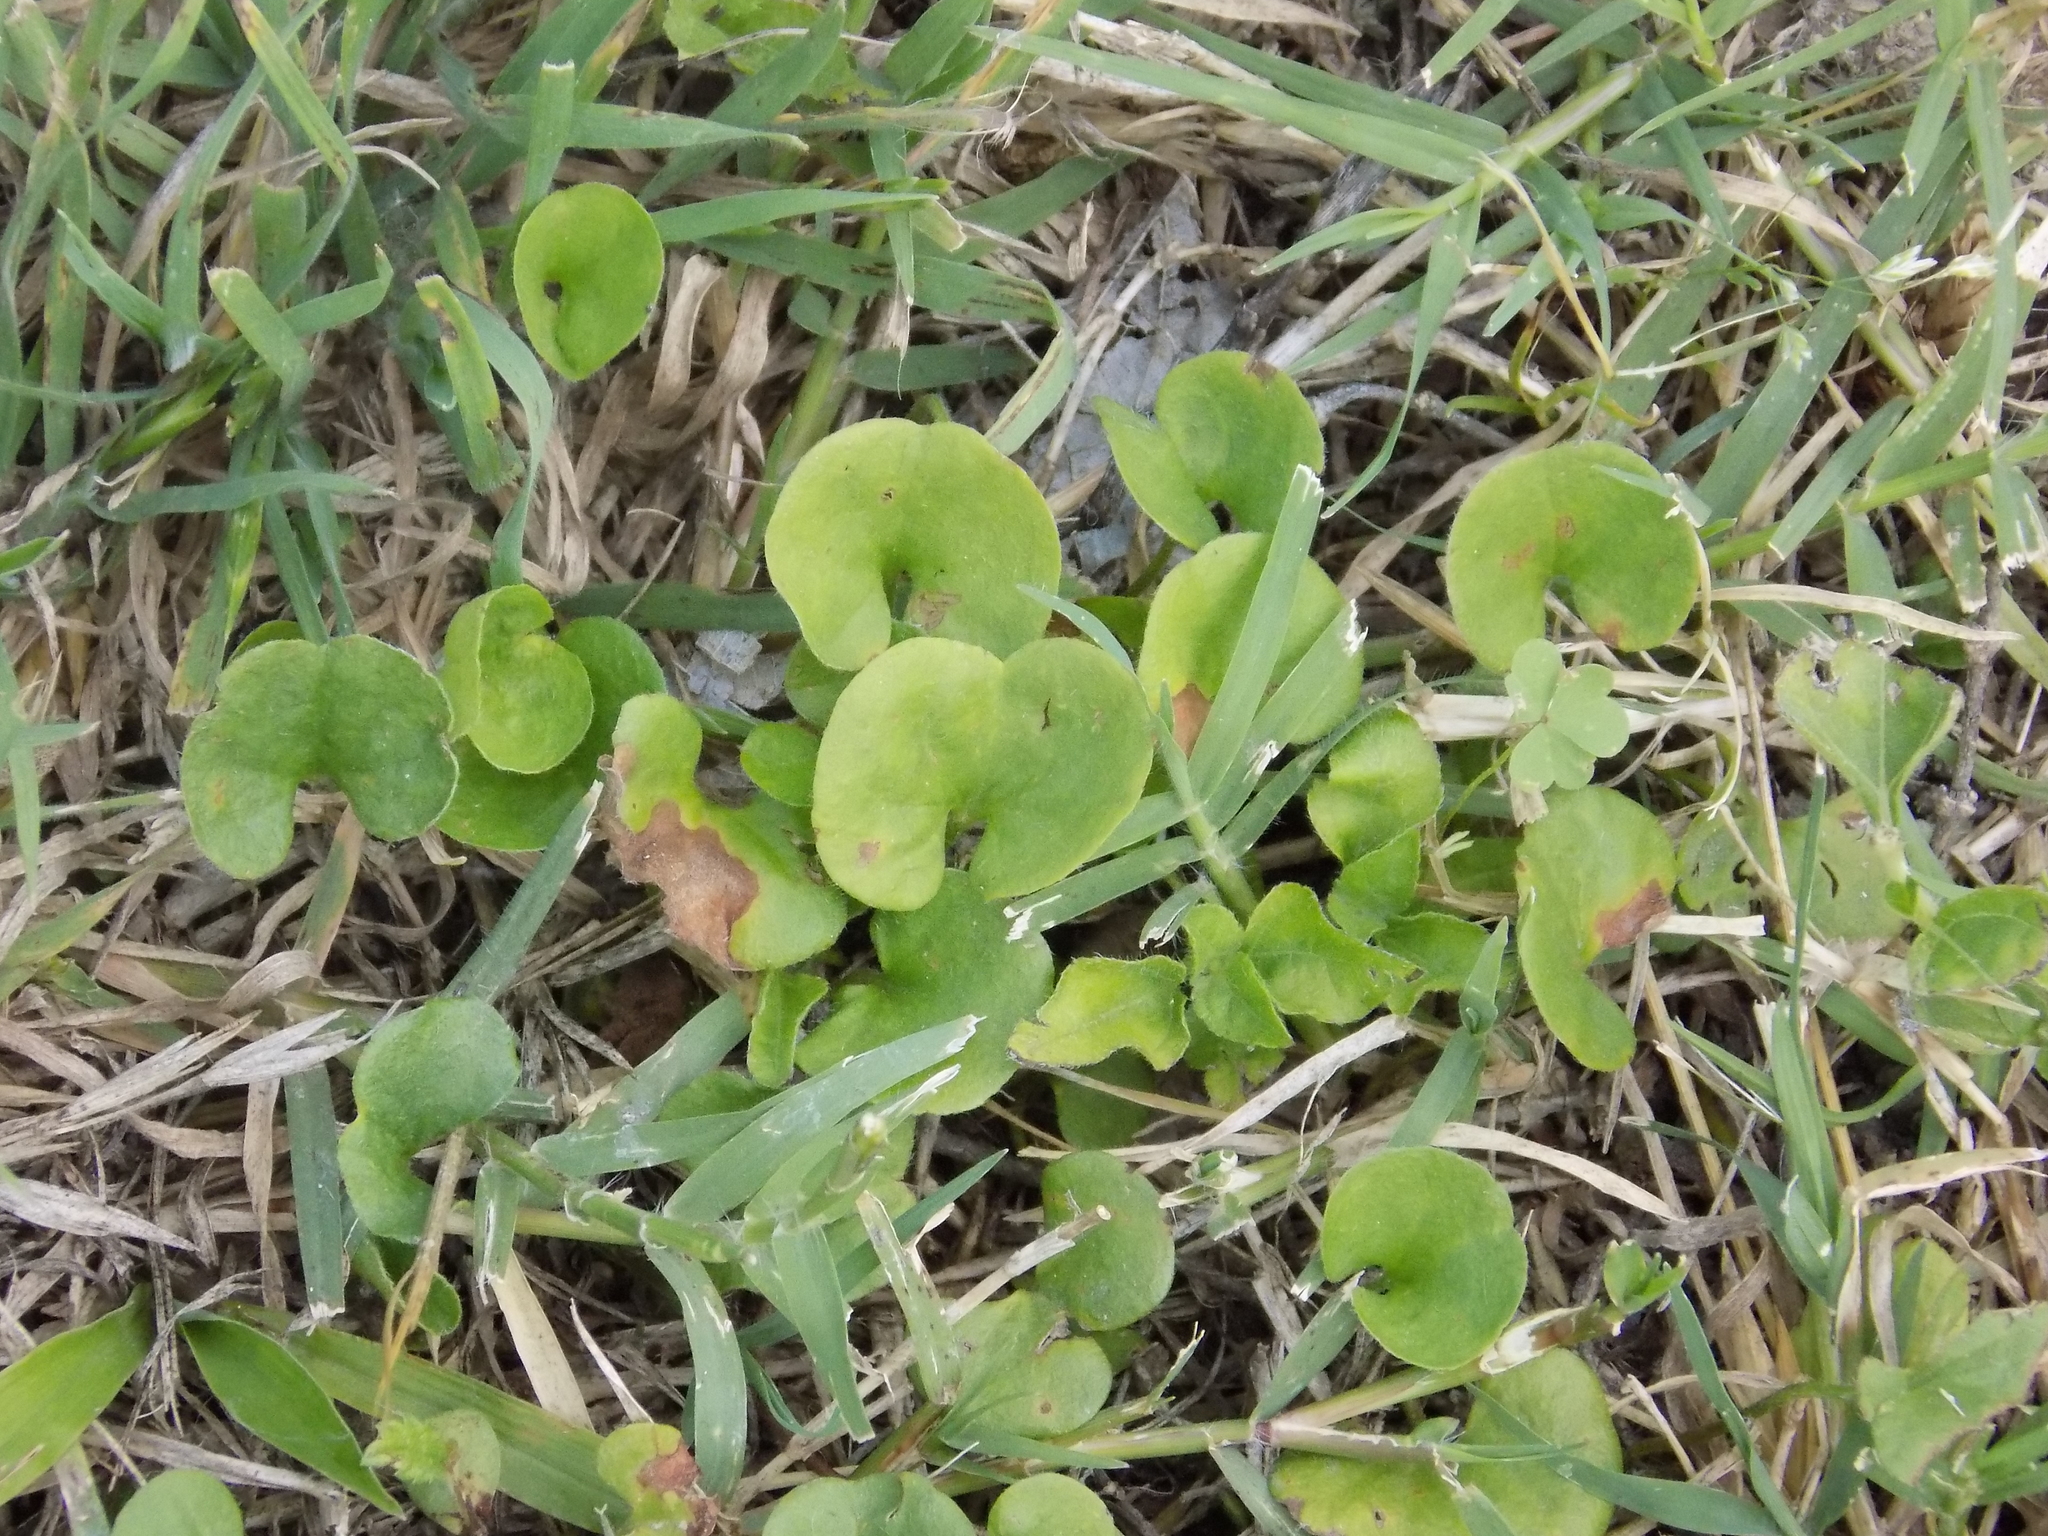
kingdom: Plantae
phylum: Tracheophyta
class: Magnoliopsida
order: Solanales
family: Convolvulaceae
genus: Dichondra
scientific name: Dichondra carolinensis
